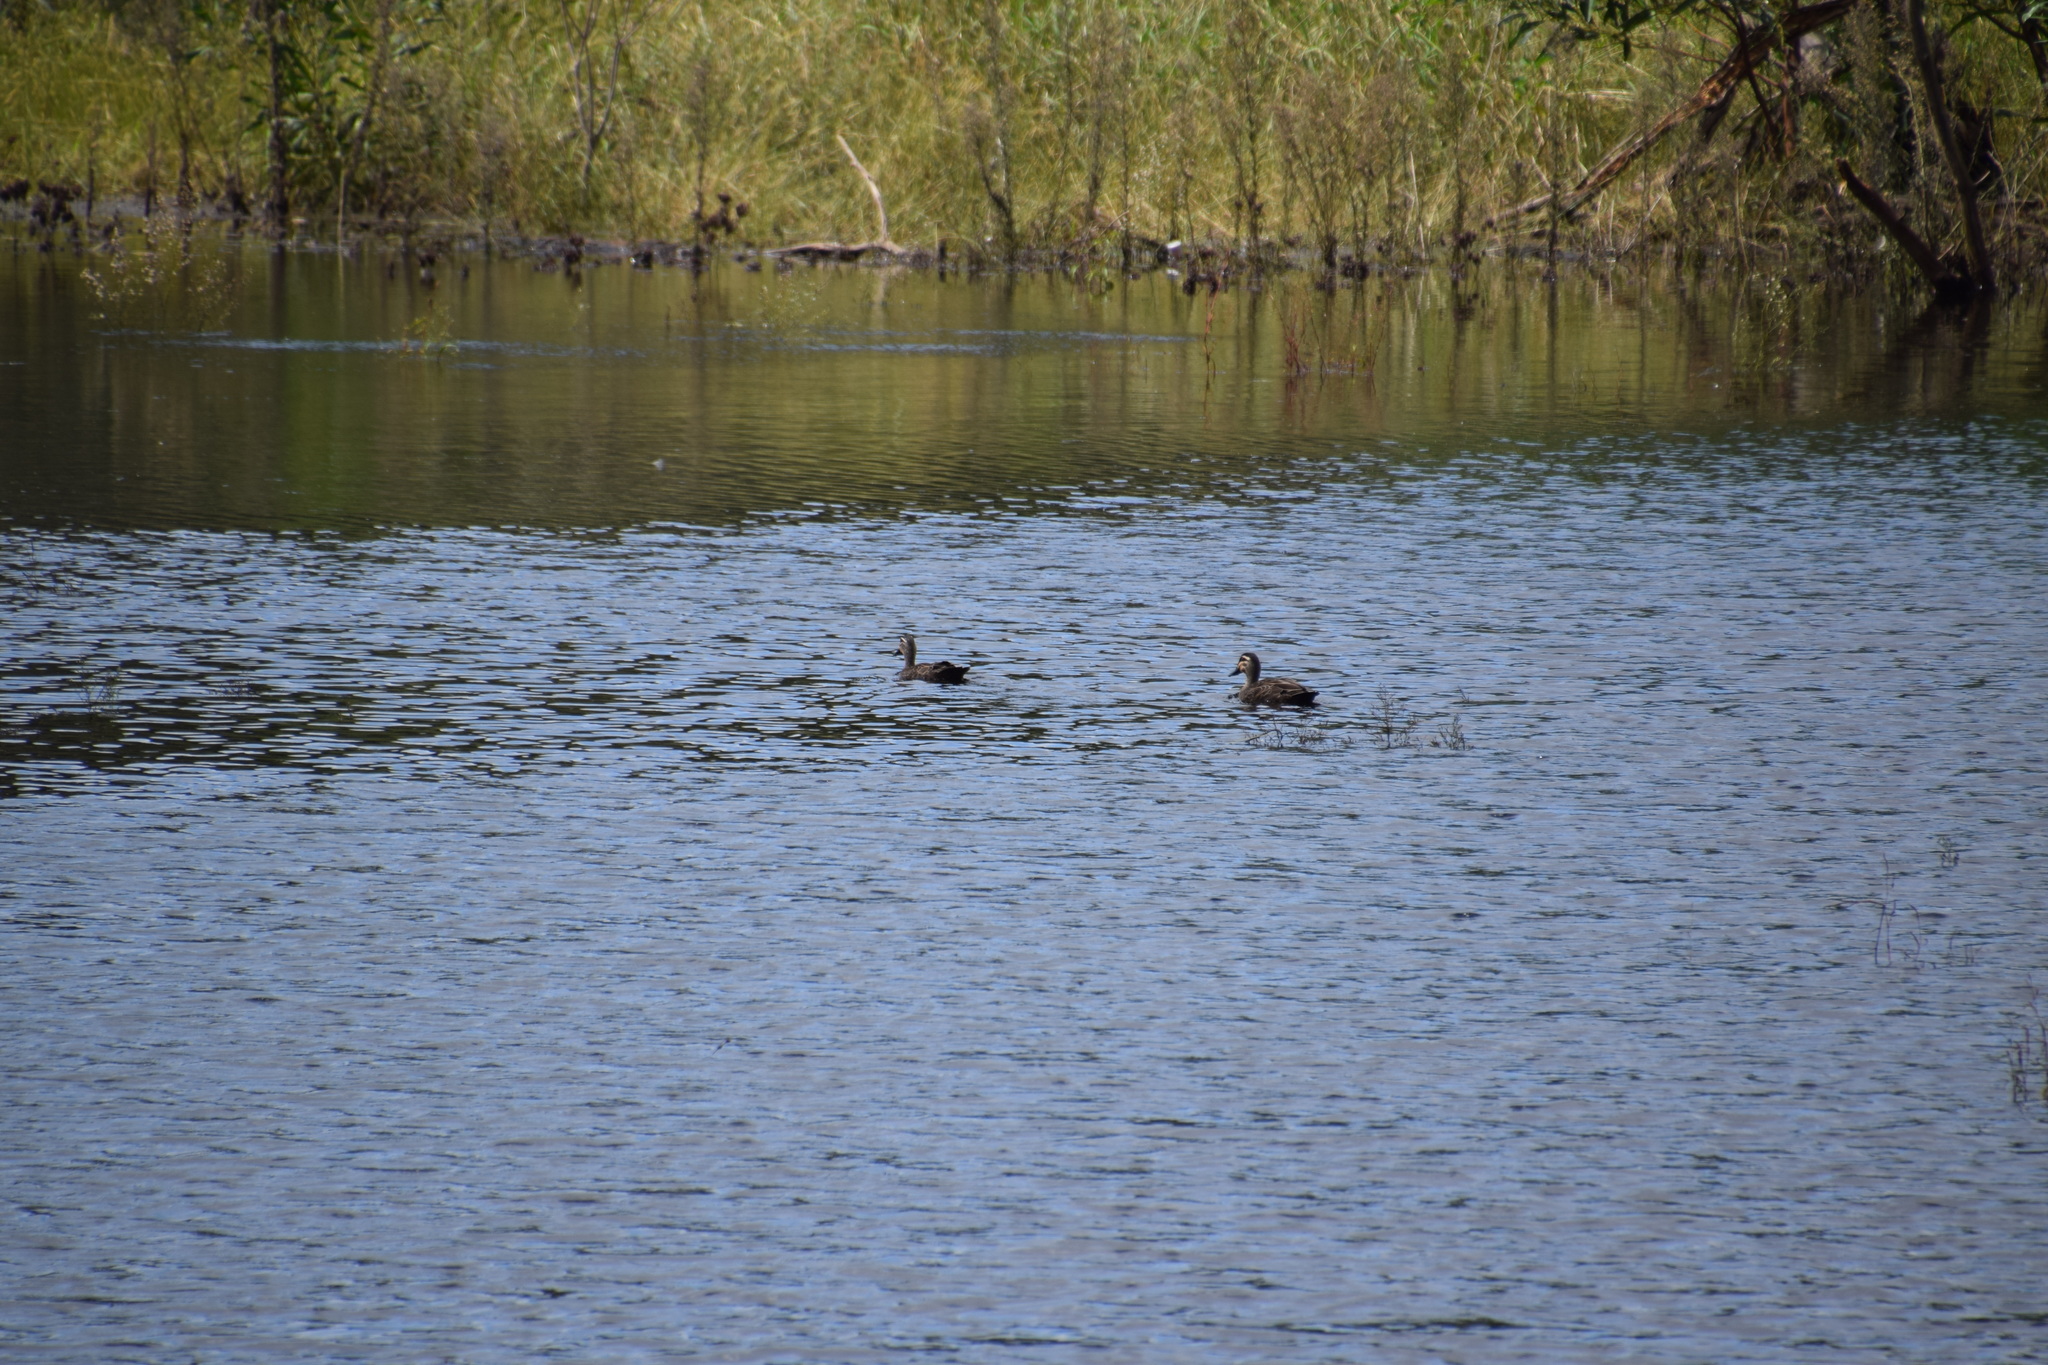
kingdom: Animalia
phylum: Chordata
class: Aves
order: Anseriformes
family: Anatidae
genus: Anas
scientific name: Anas superciliosa
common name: Pacific black duck
